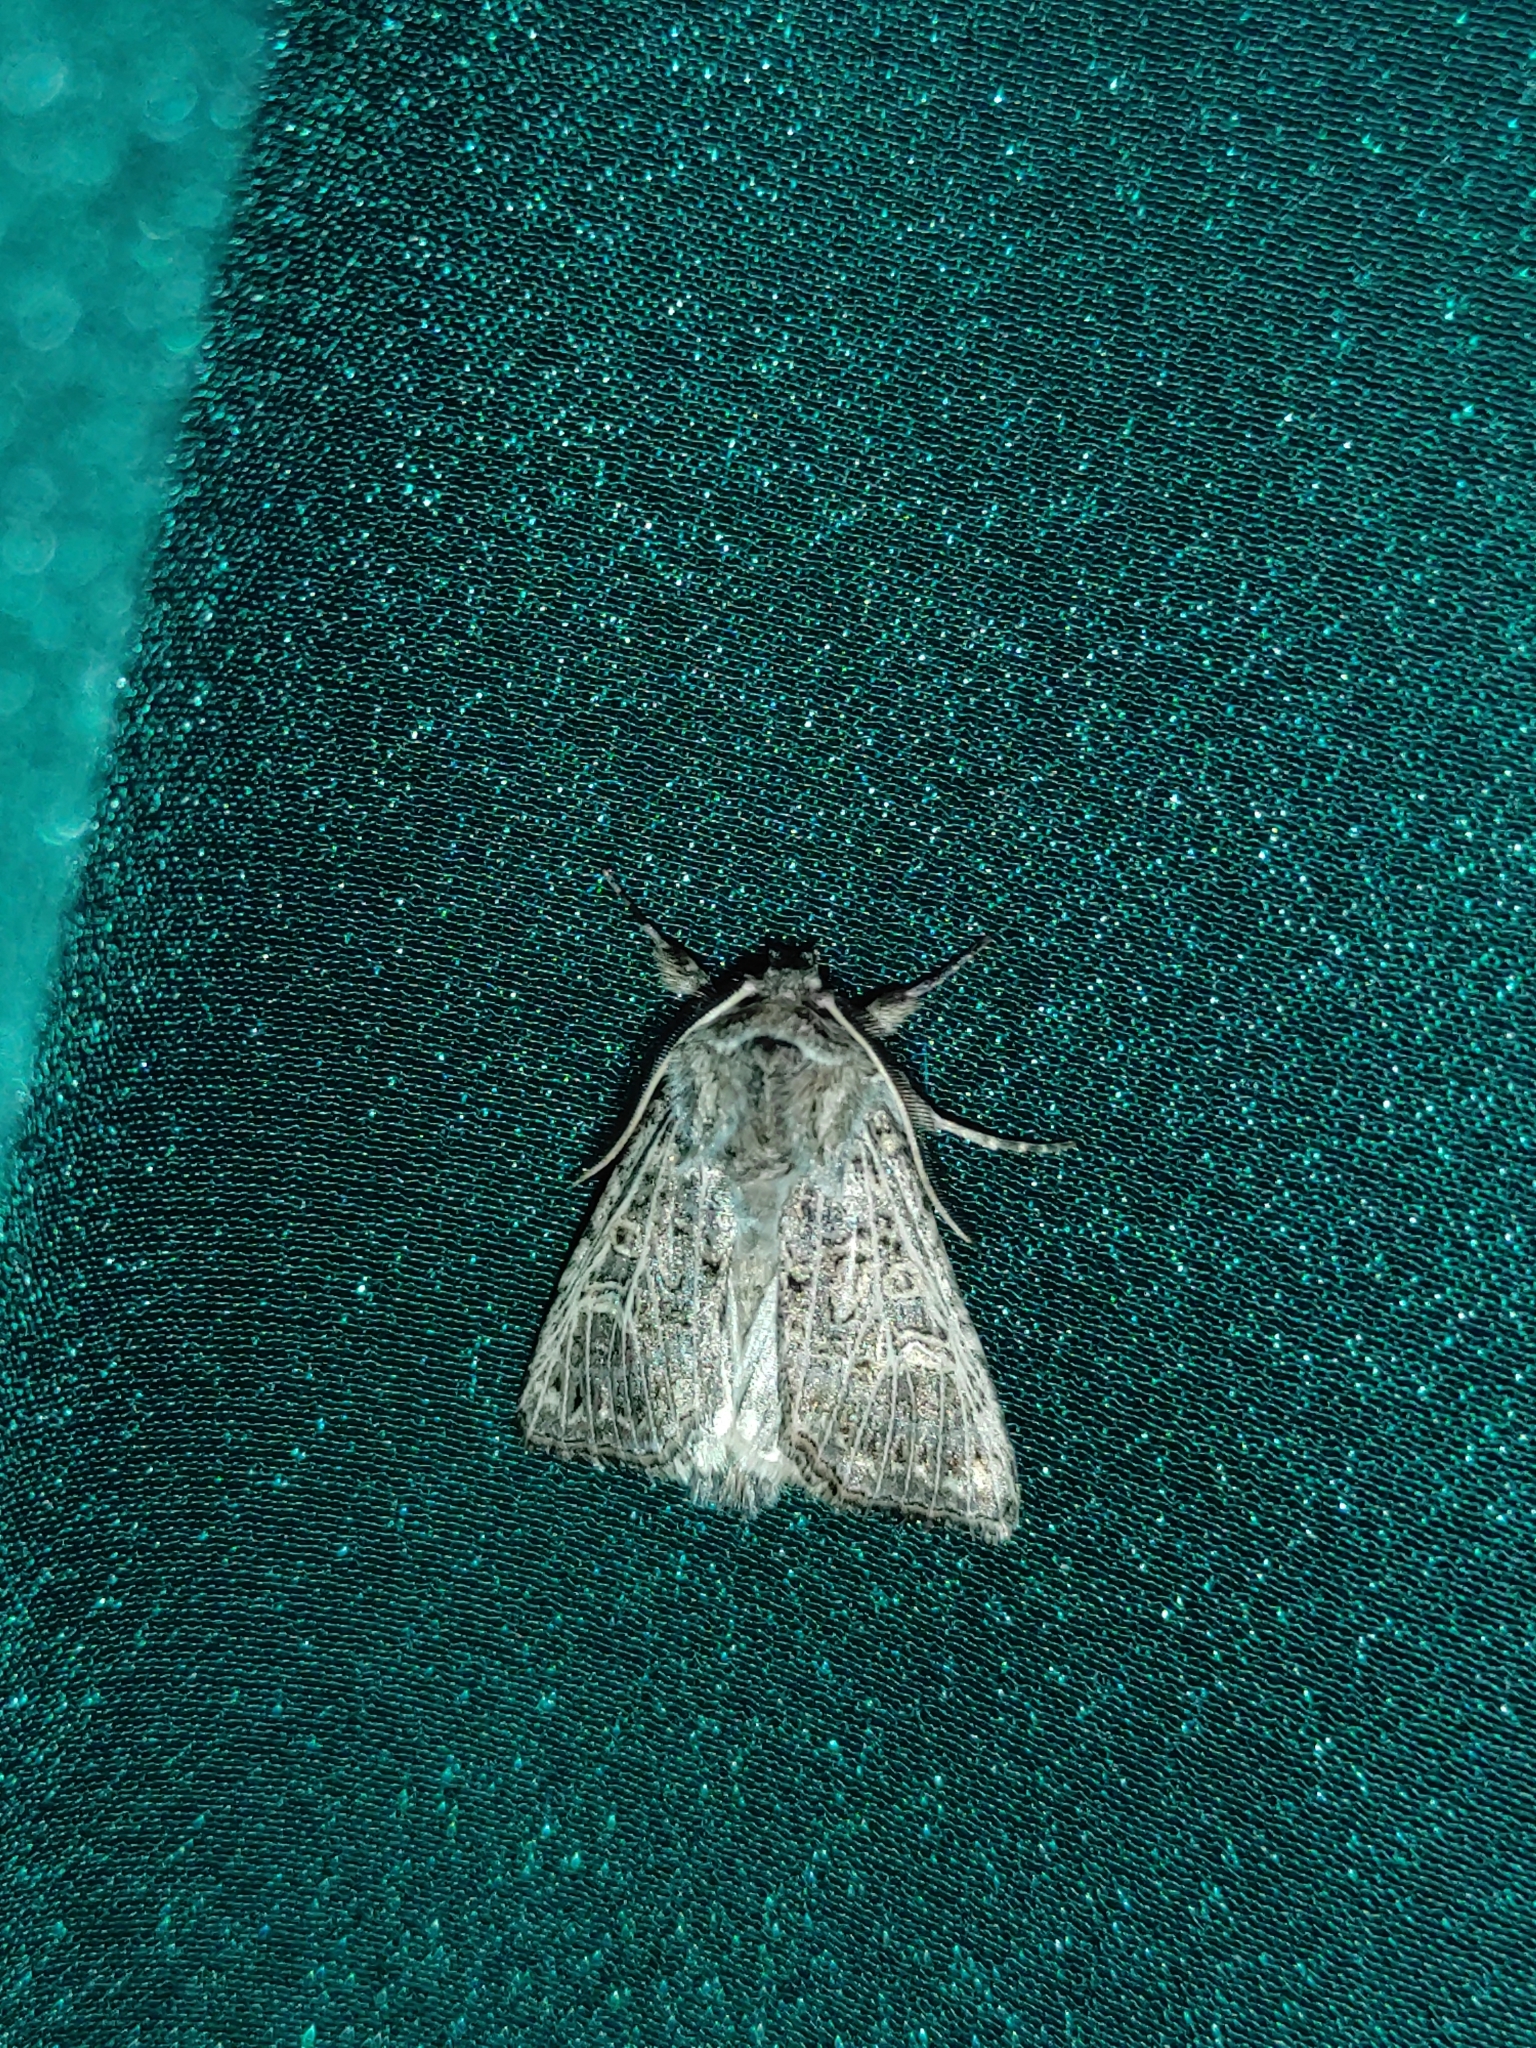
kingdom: Animalia
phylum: Arthropoda
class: Insecta
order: Lepidoptera
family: Noctuidae
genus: Tholera
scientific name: Tholera decimalis
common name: Feathered gothic
